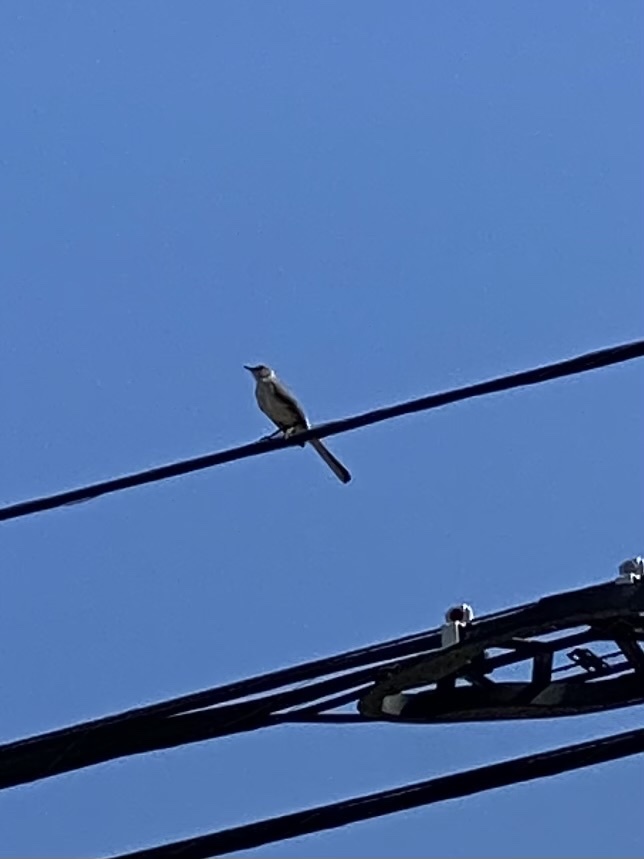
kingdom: Animalia
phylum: Chordata
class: Aves
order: Passeriformes
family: Mimidae
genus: Mimus
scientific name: Mimus polyglottos
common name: Northern mockingbird
